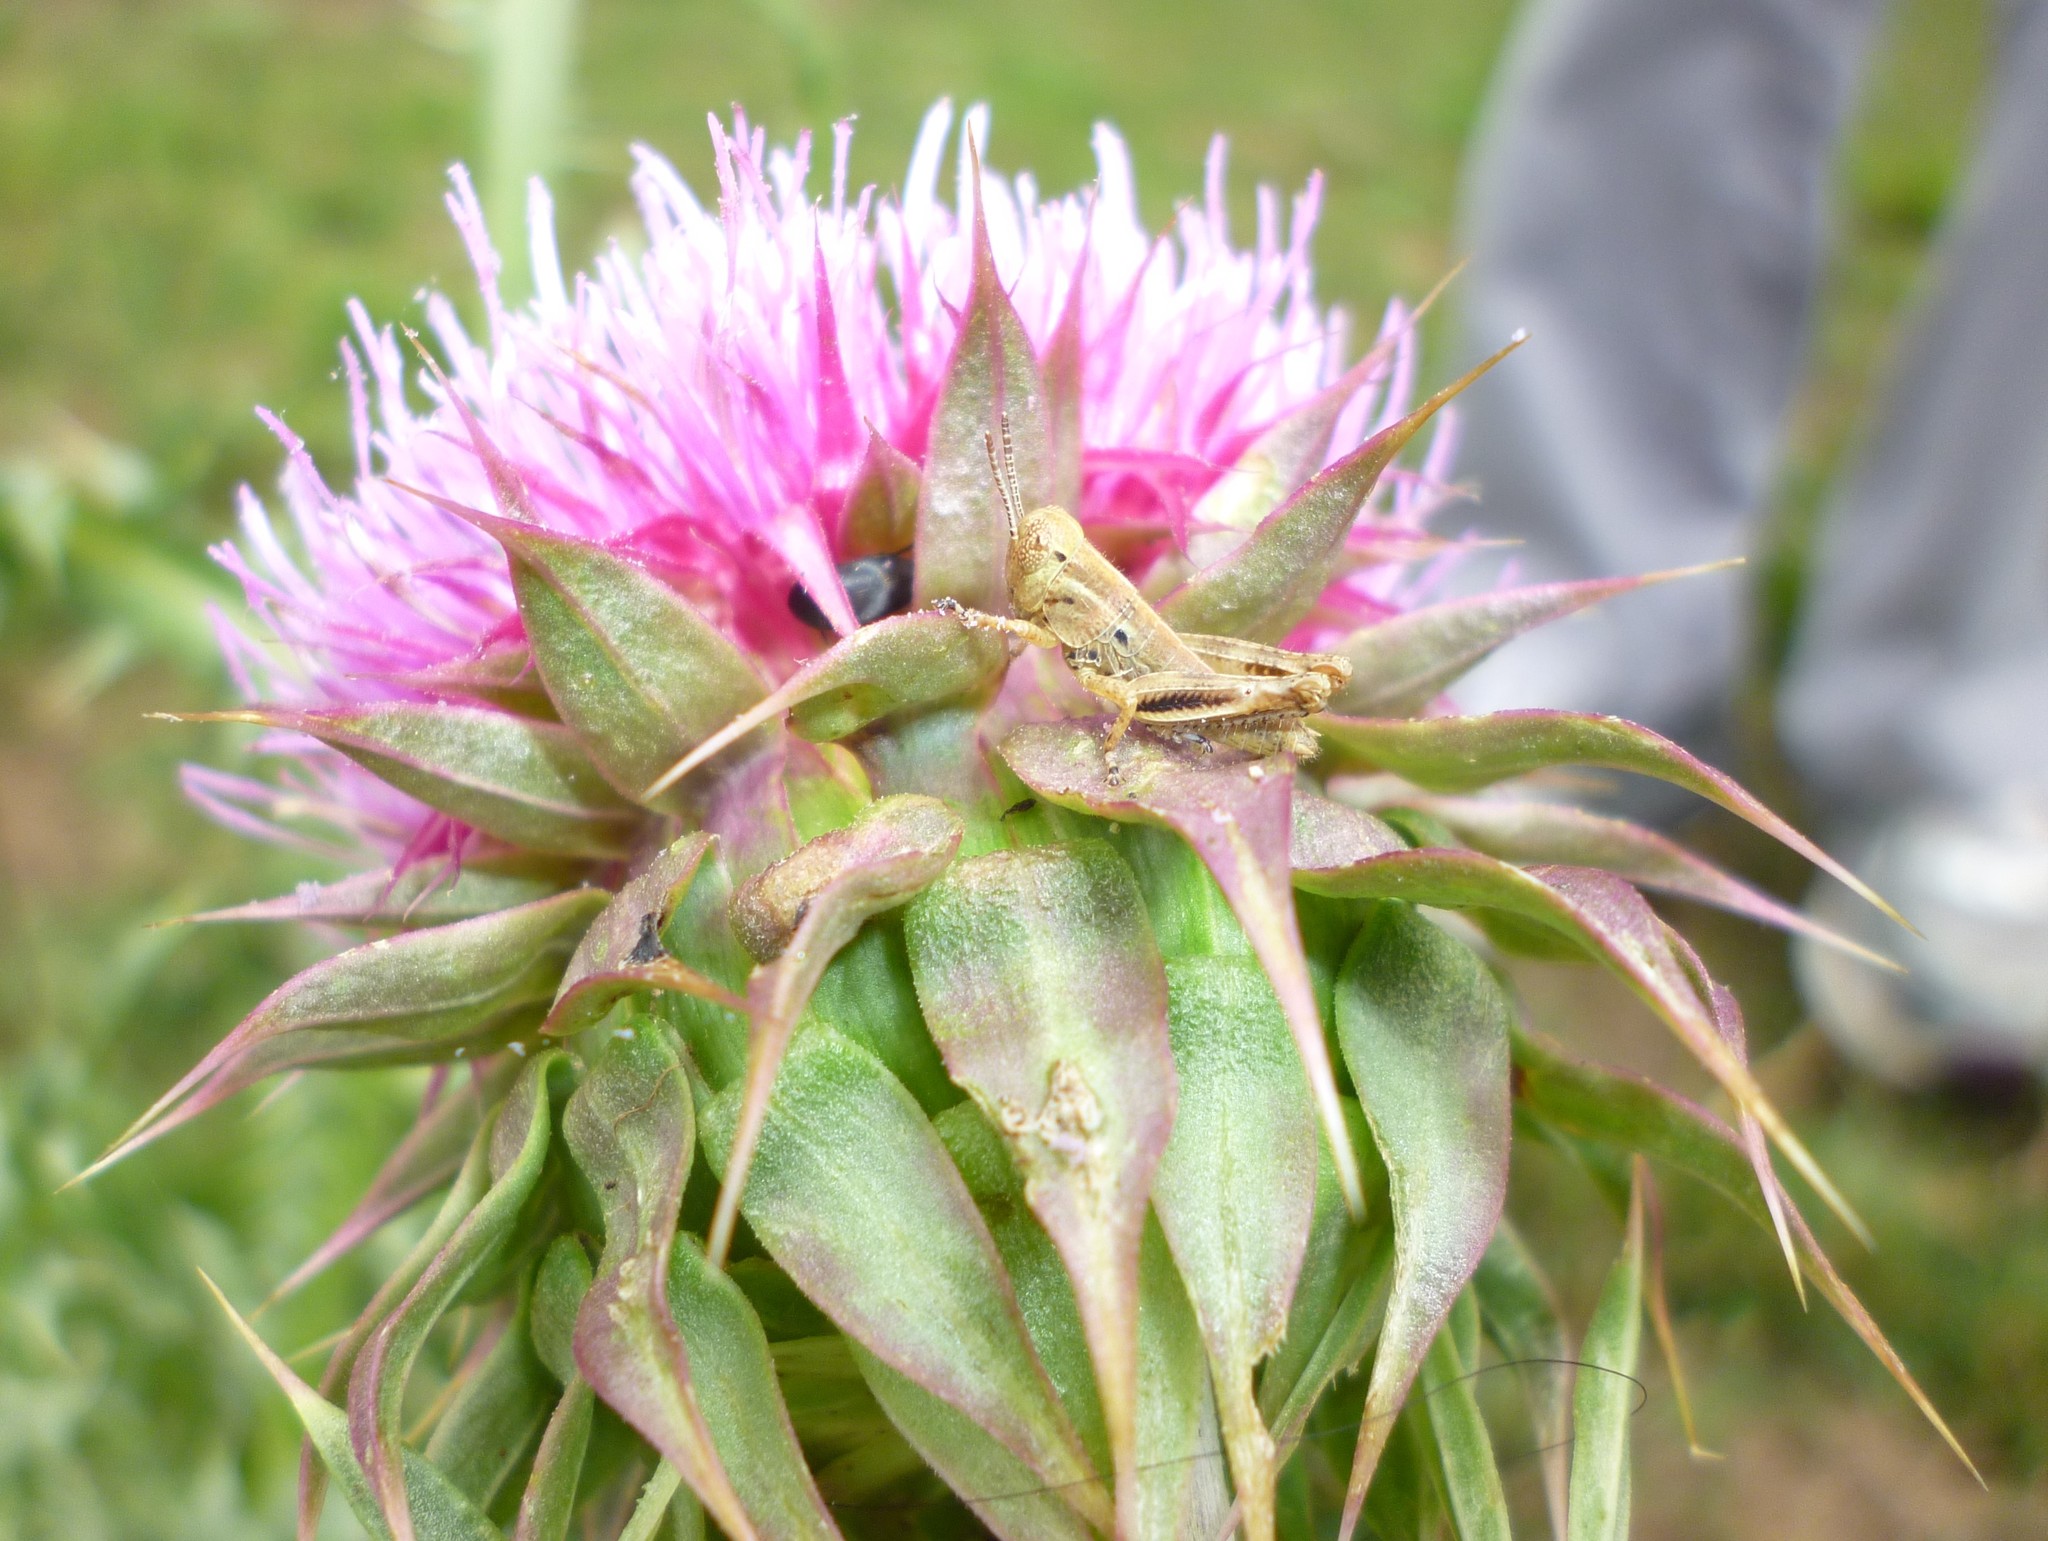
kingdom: Plantae
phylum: Tracheophyta
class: Magnoliopsida
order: Asterales
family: Asteraceae
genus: Carduus
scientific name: Carduus nutans
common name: Musk thistle
